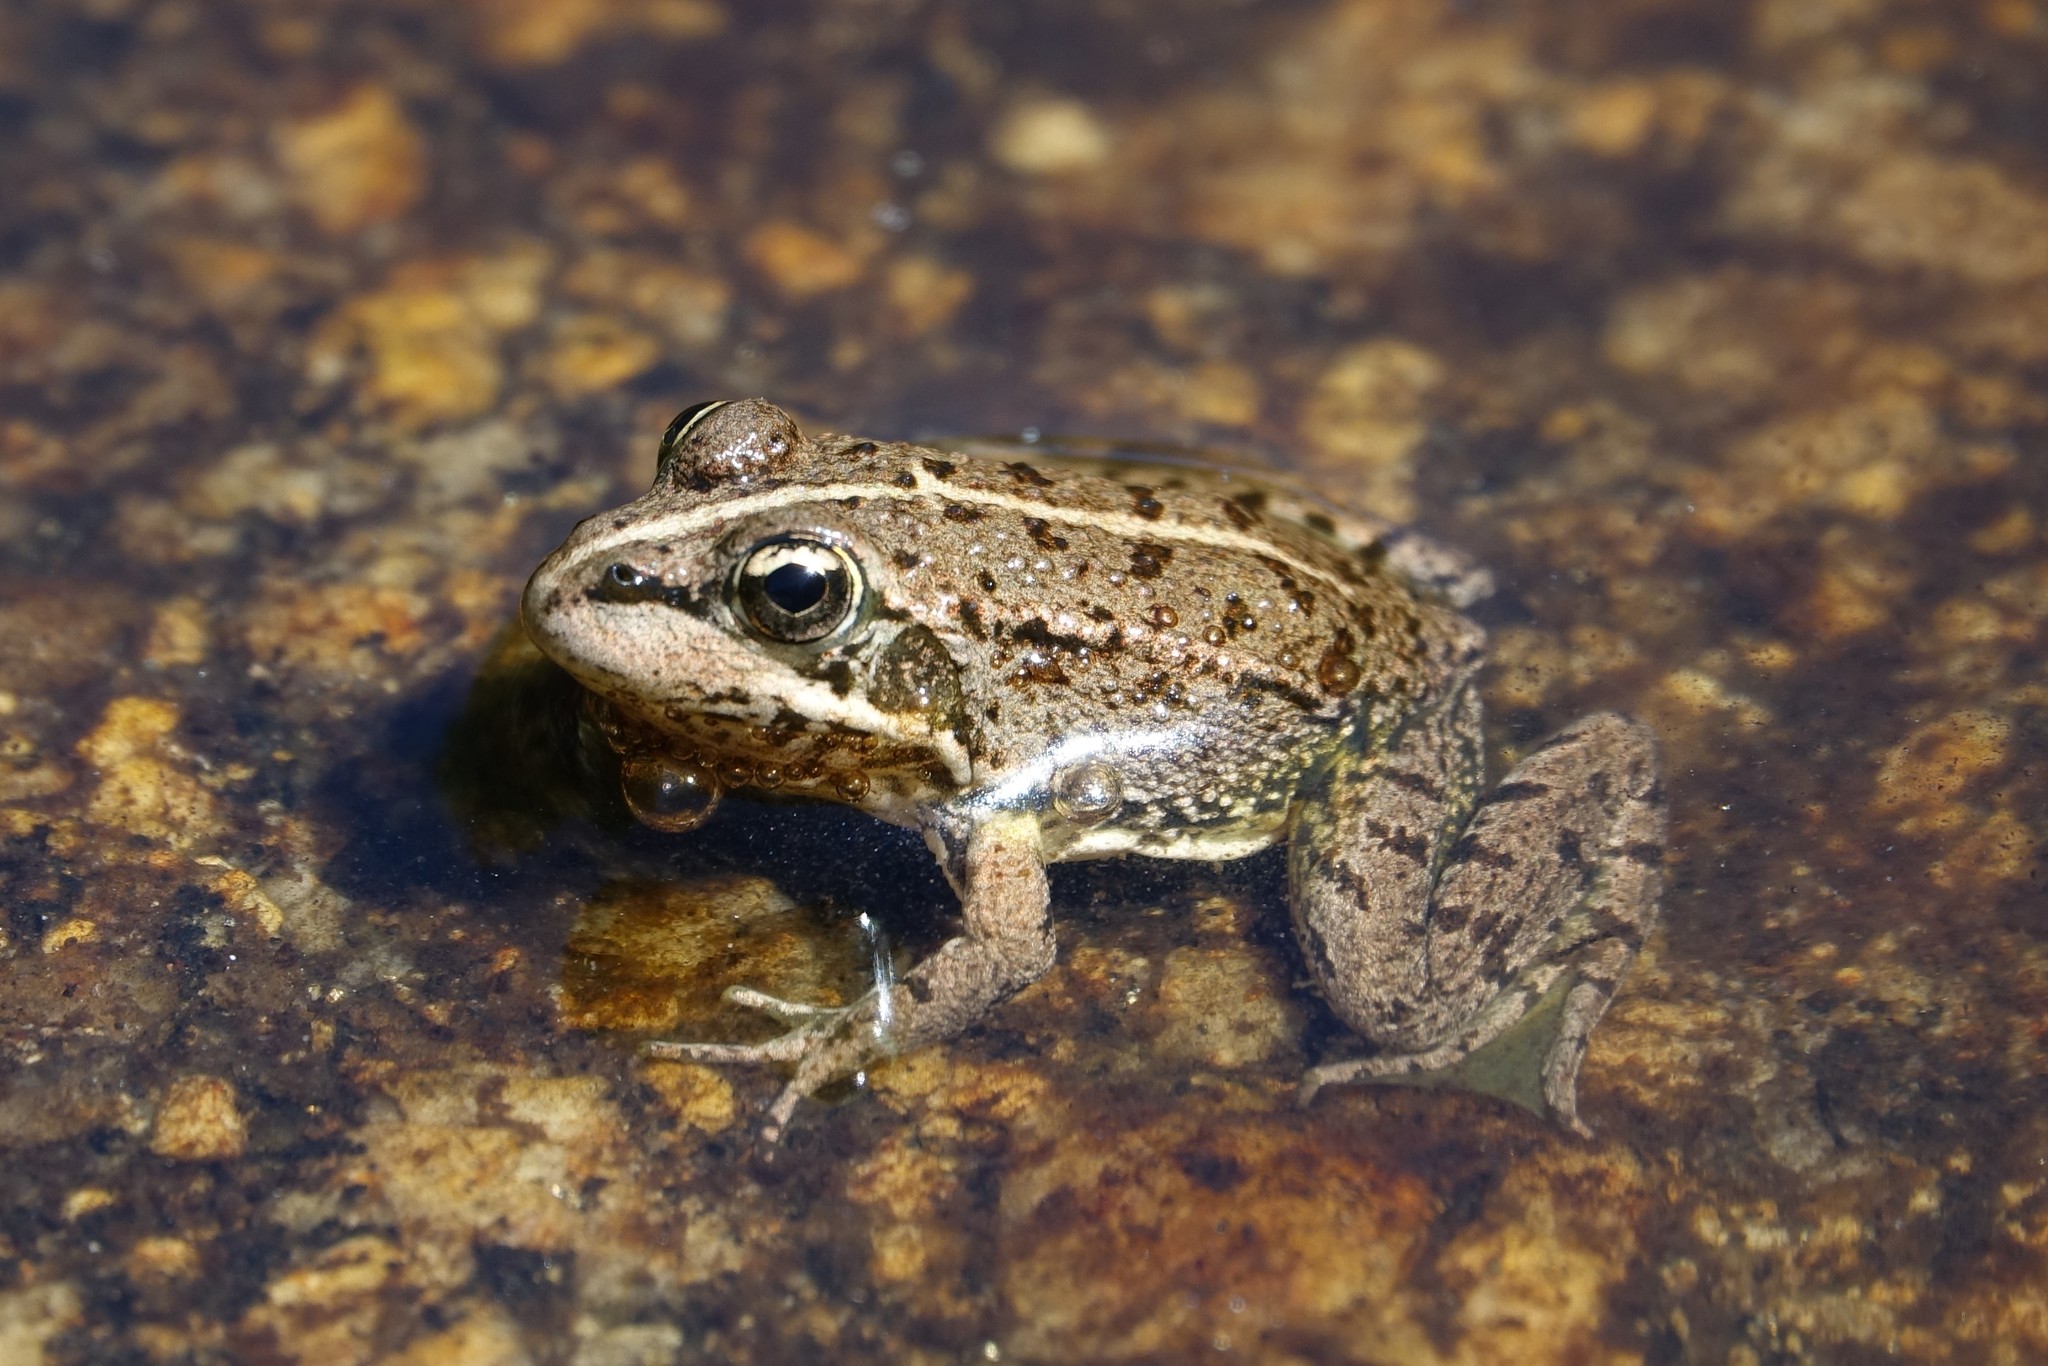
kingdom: Animalia
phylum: Chordata
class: Amphibia
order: Anura
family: Ranidae
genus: Pelophylax
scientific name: Pelophylax perezi
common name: Perez's frog
